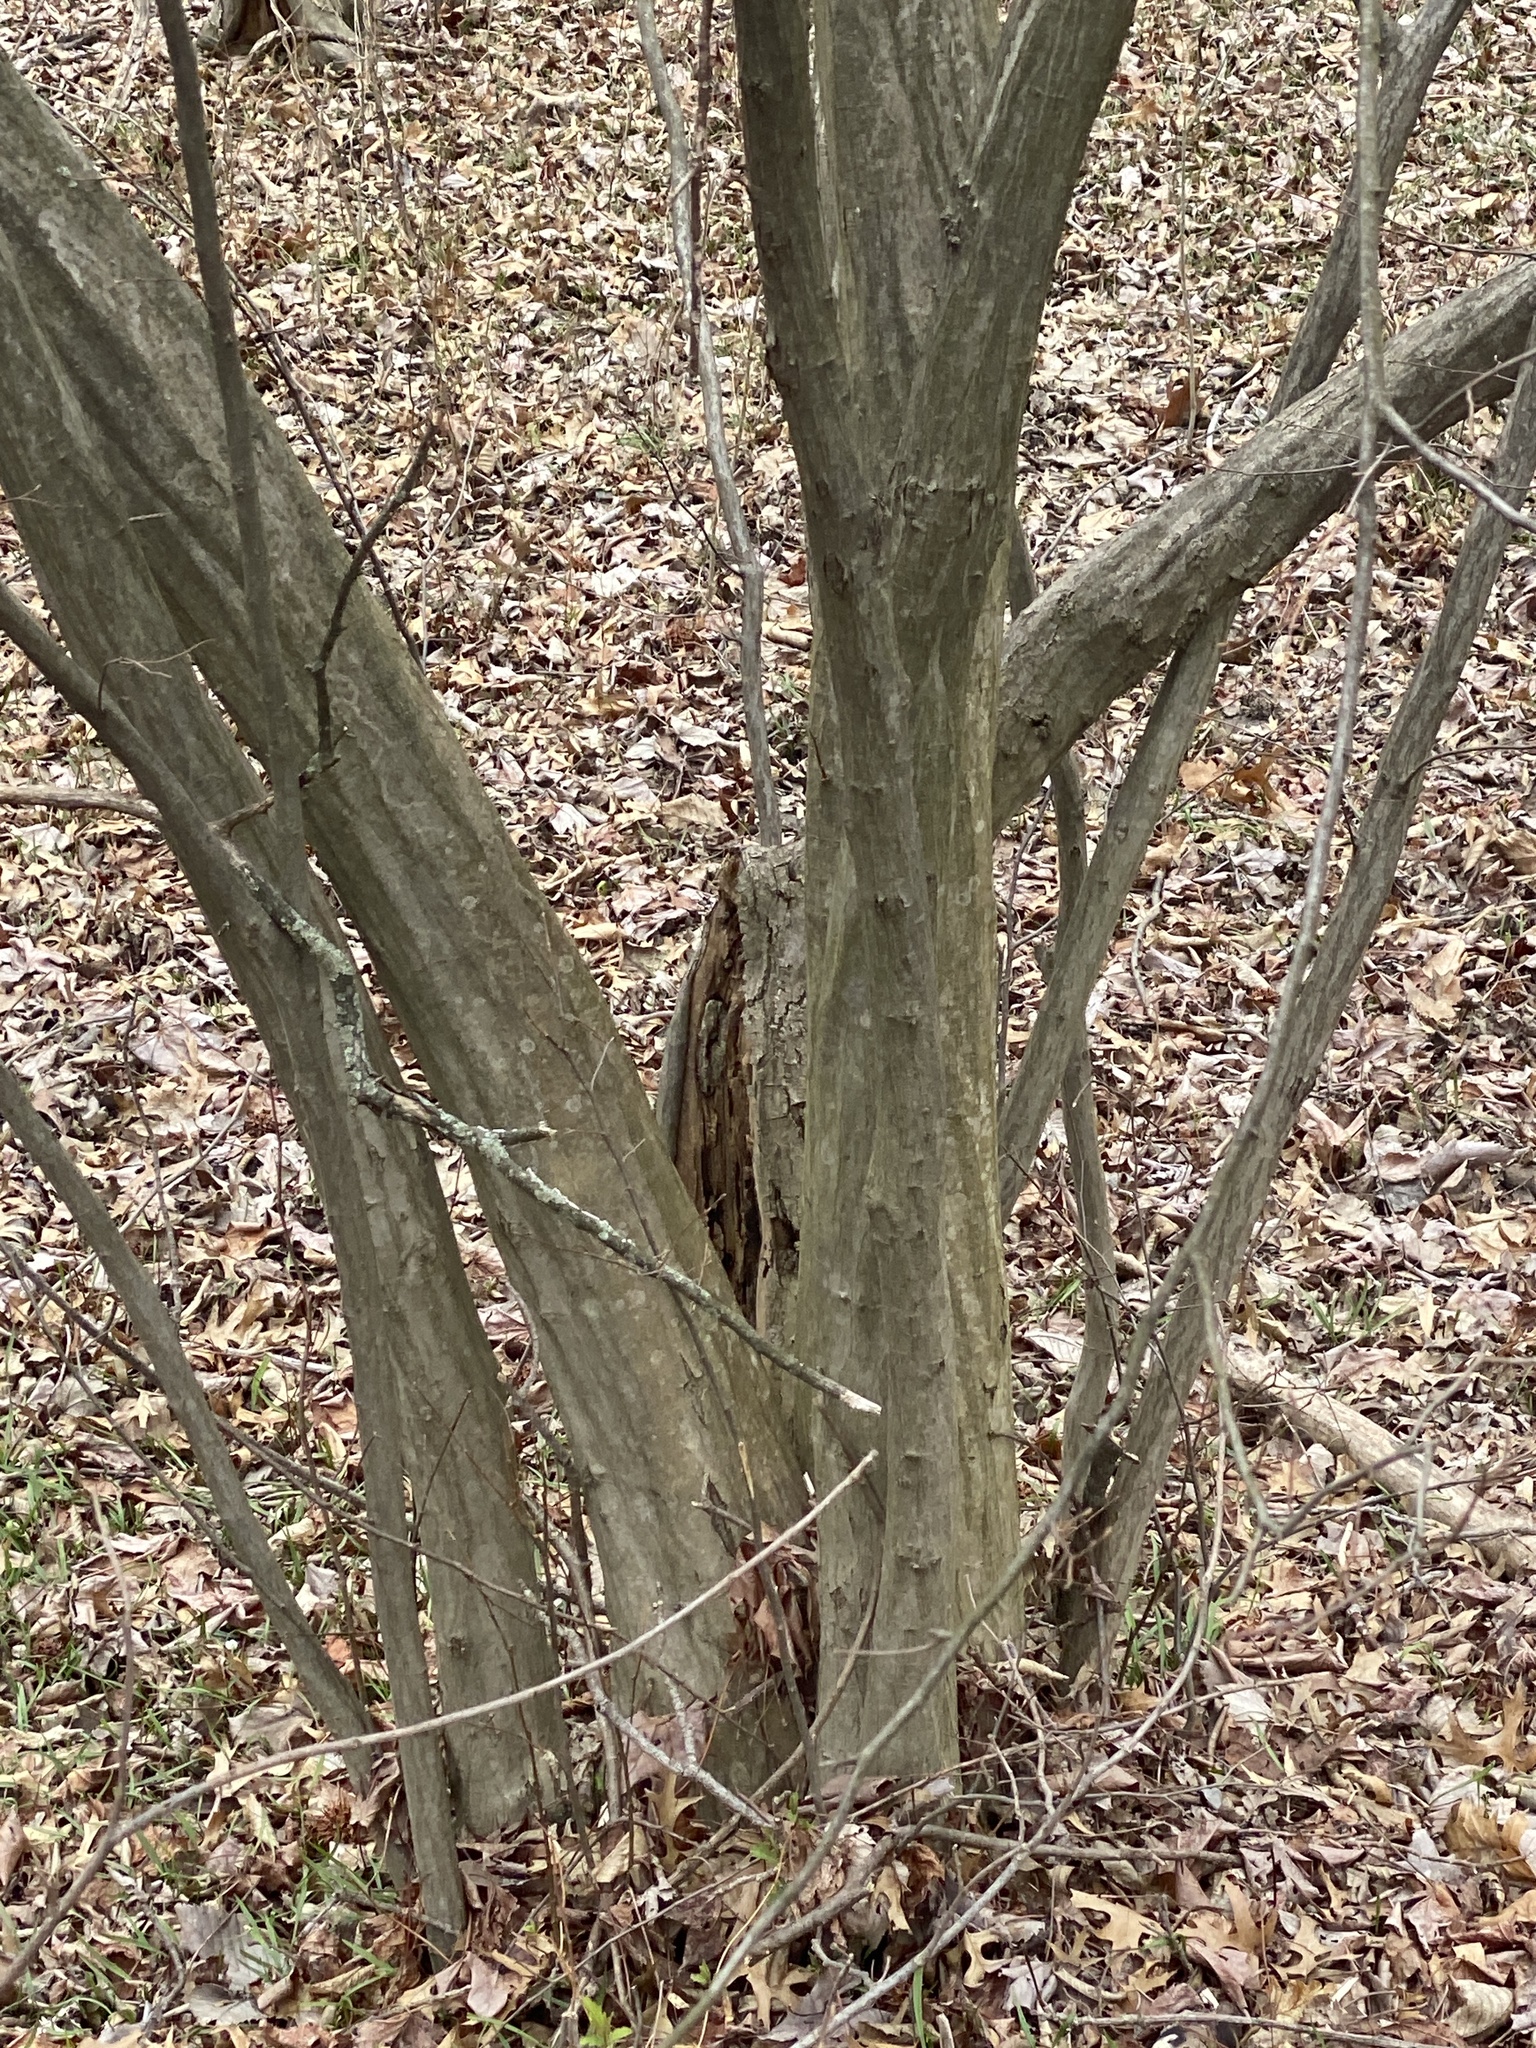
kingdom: Plantae
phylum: Tracheophyta
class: Magnoliopsida
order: Fagales
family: Betulaceae
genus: Carpinus
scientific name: Carpinus caroliniana
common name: American hornbeam
